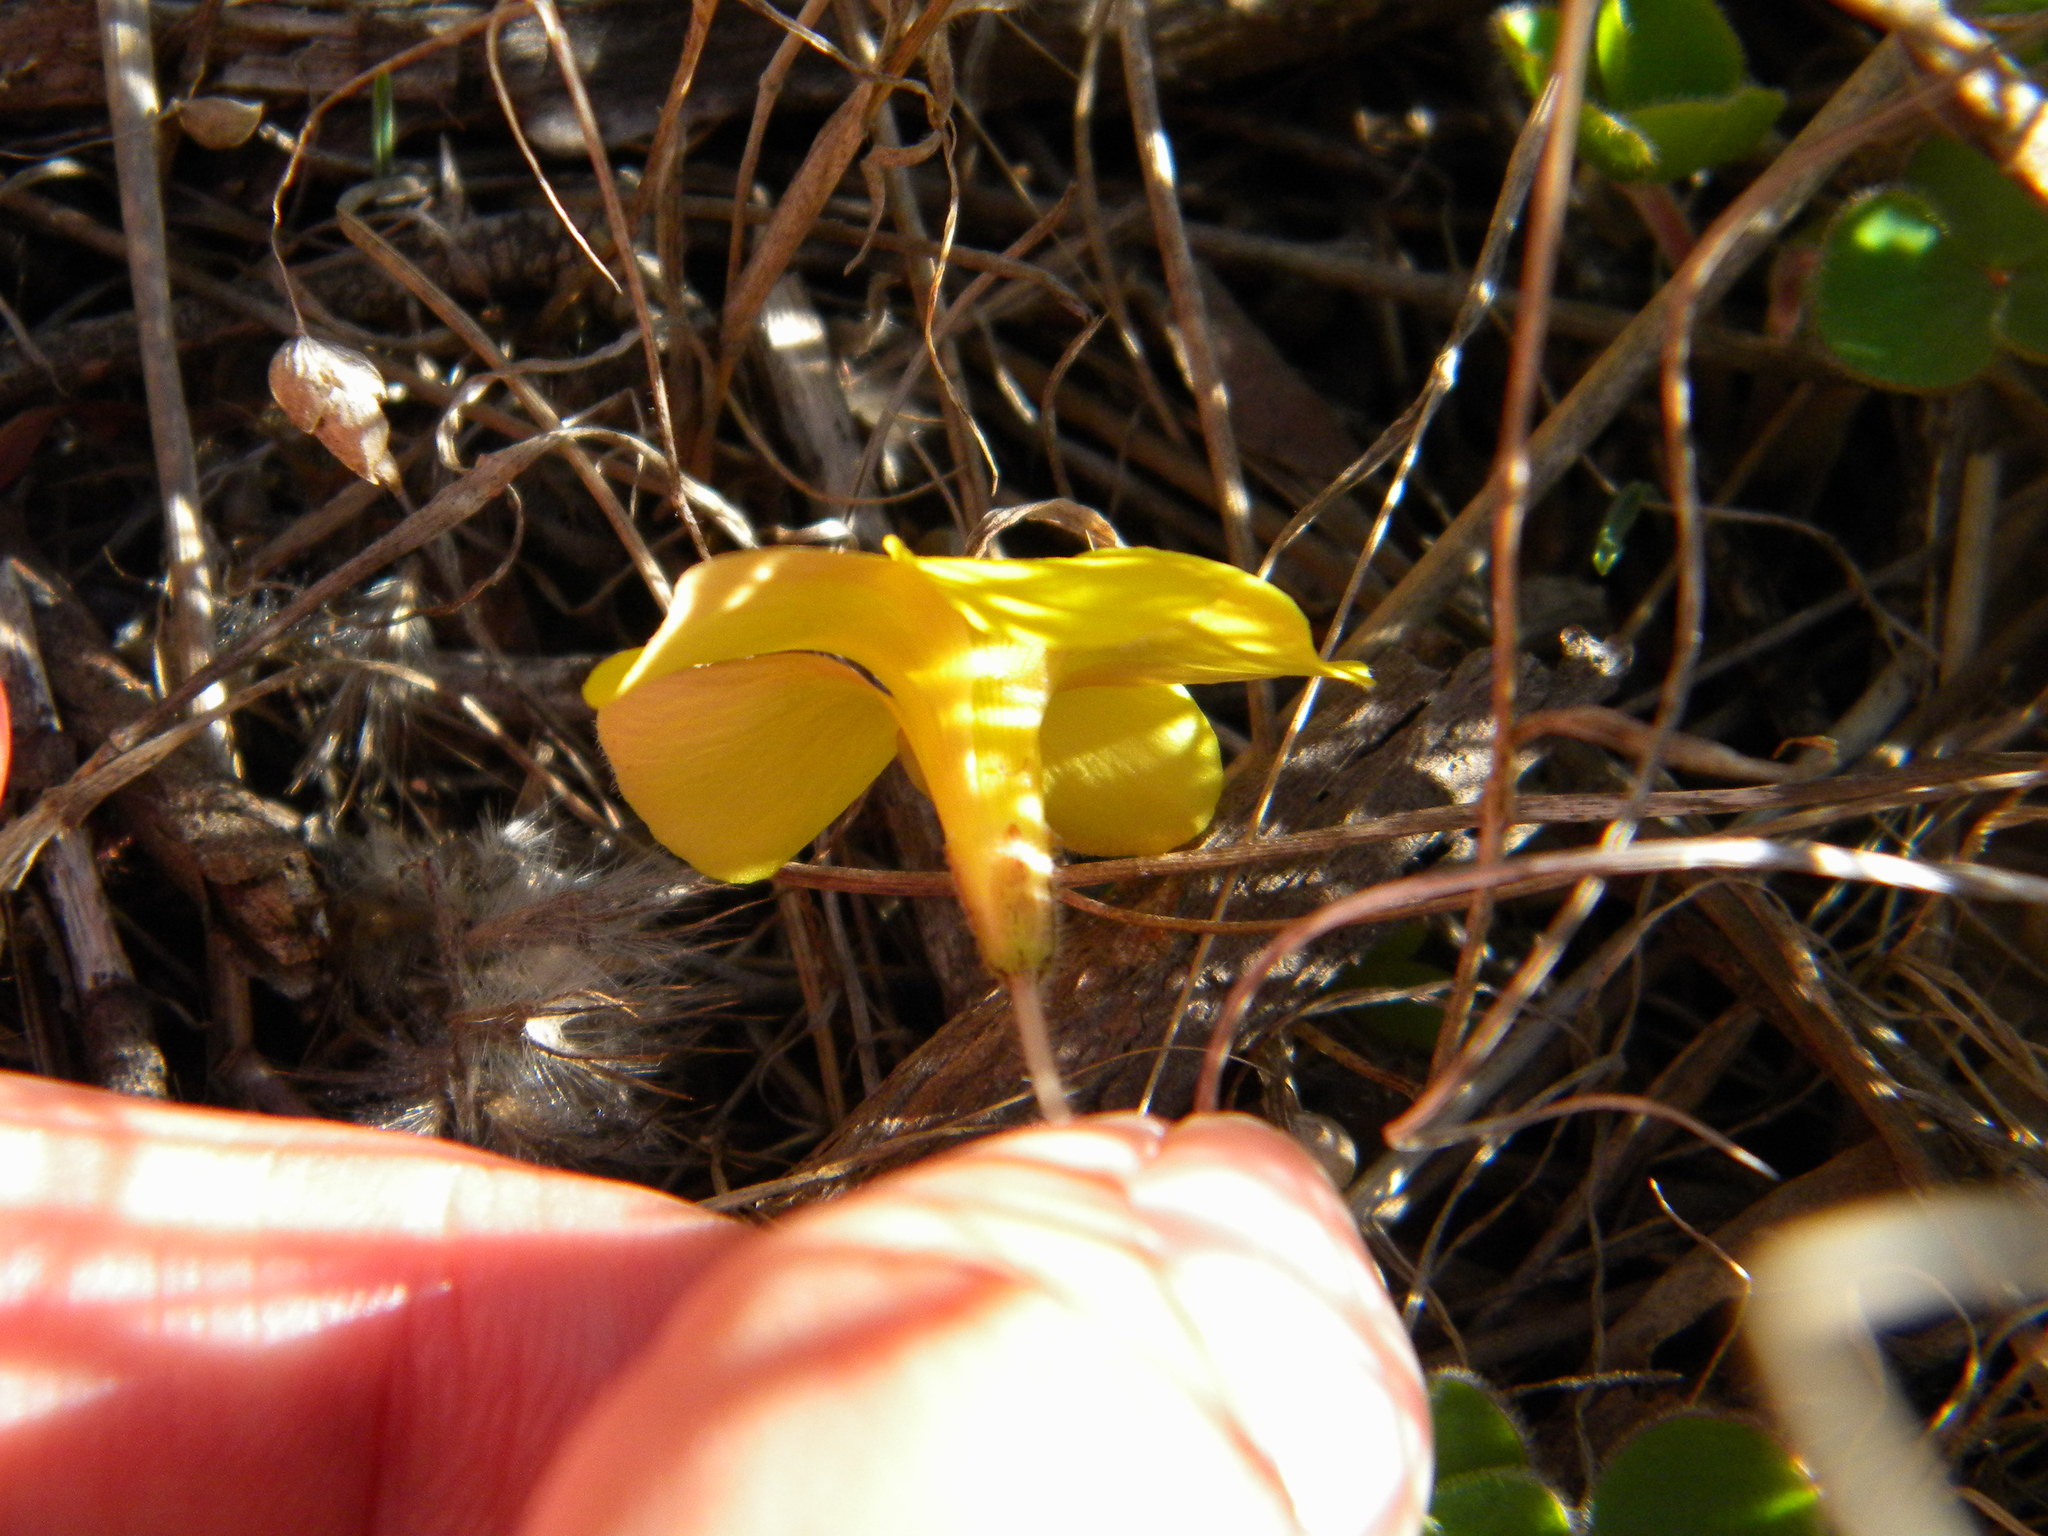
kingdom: Plantae
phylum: Tracheophyta
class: Magnoliopsida
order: Oxalidales
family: Oxalidaceae
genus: Oxalis
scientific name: Oxalis luteola
